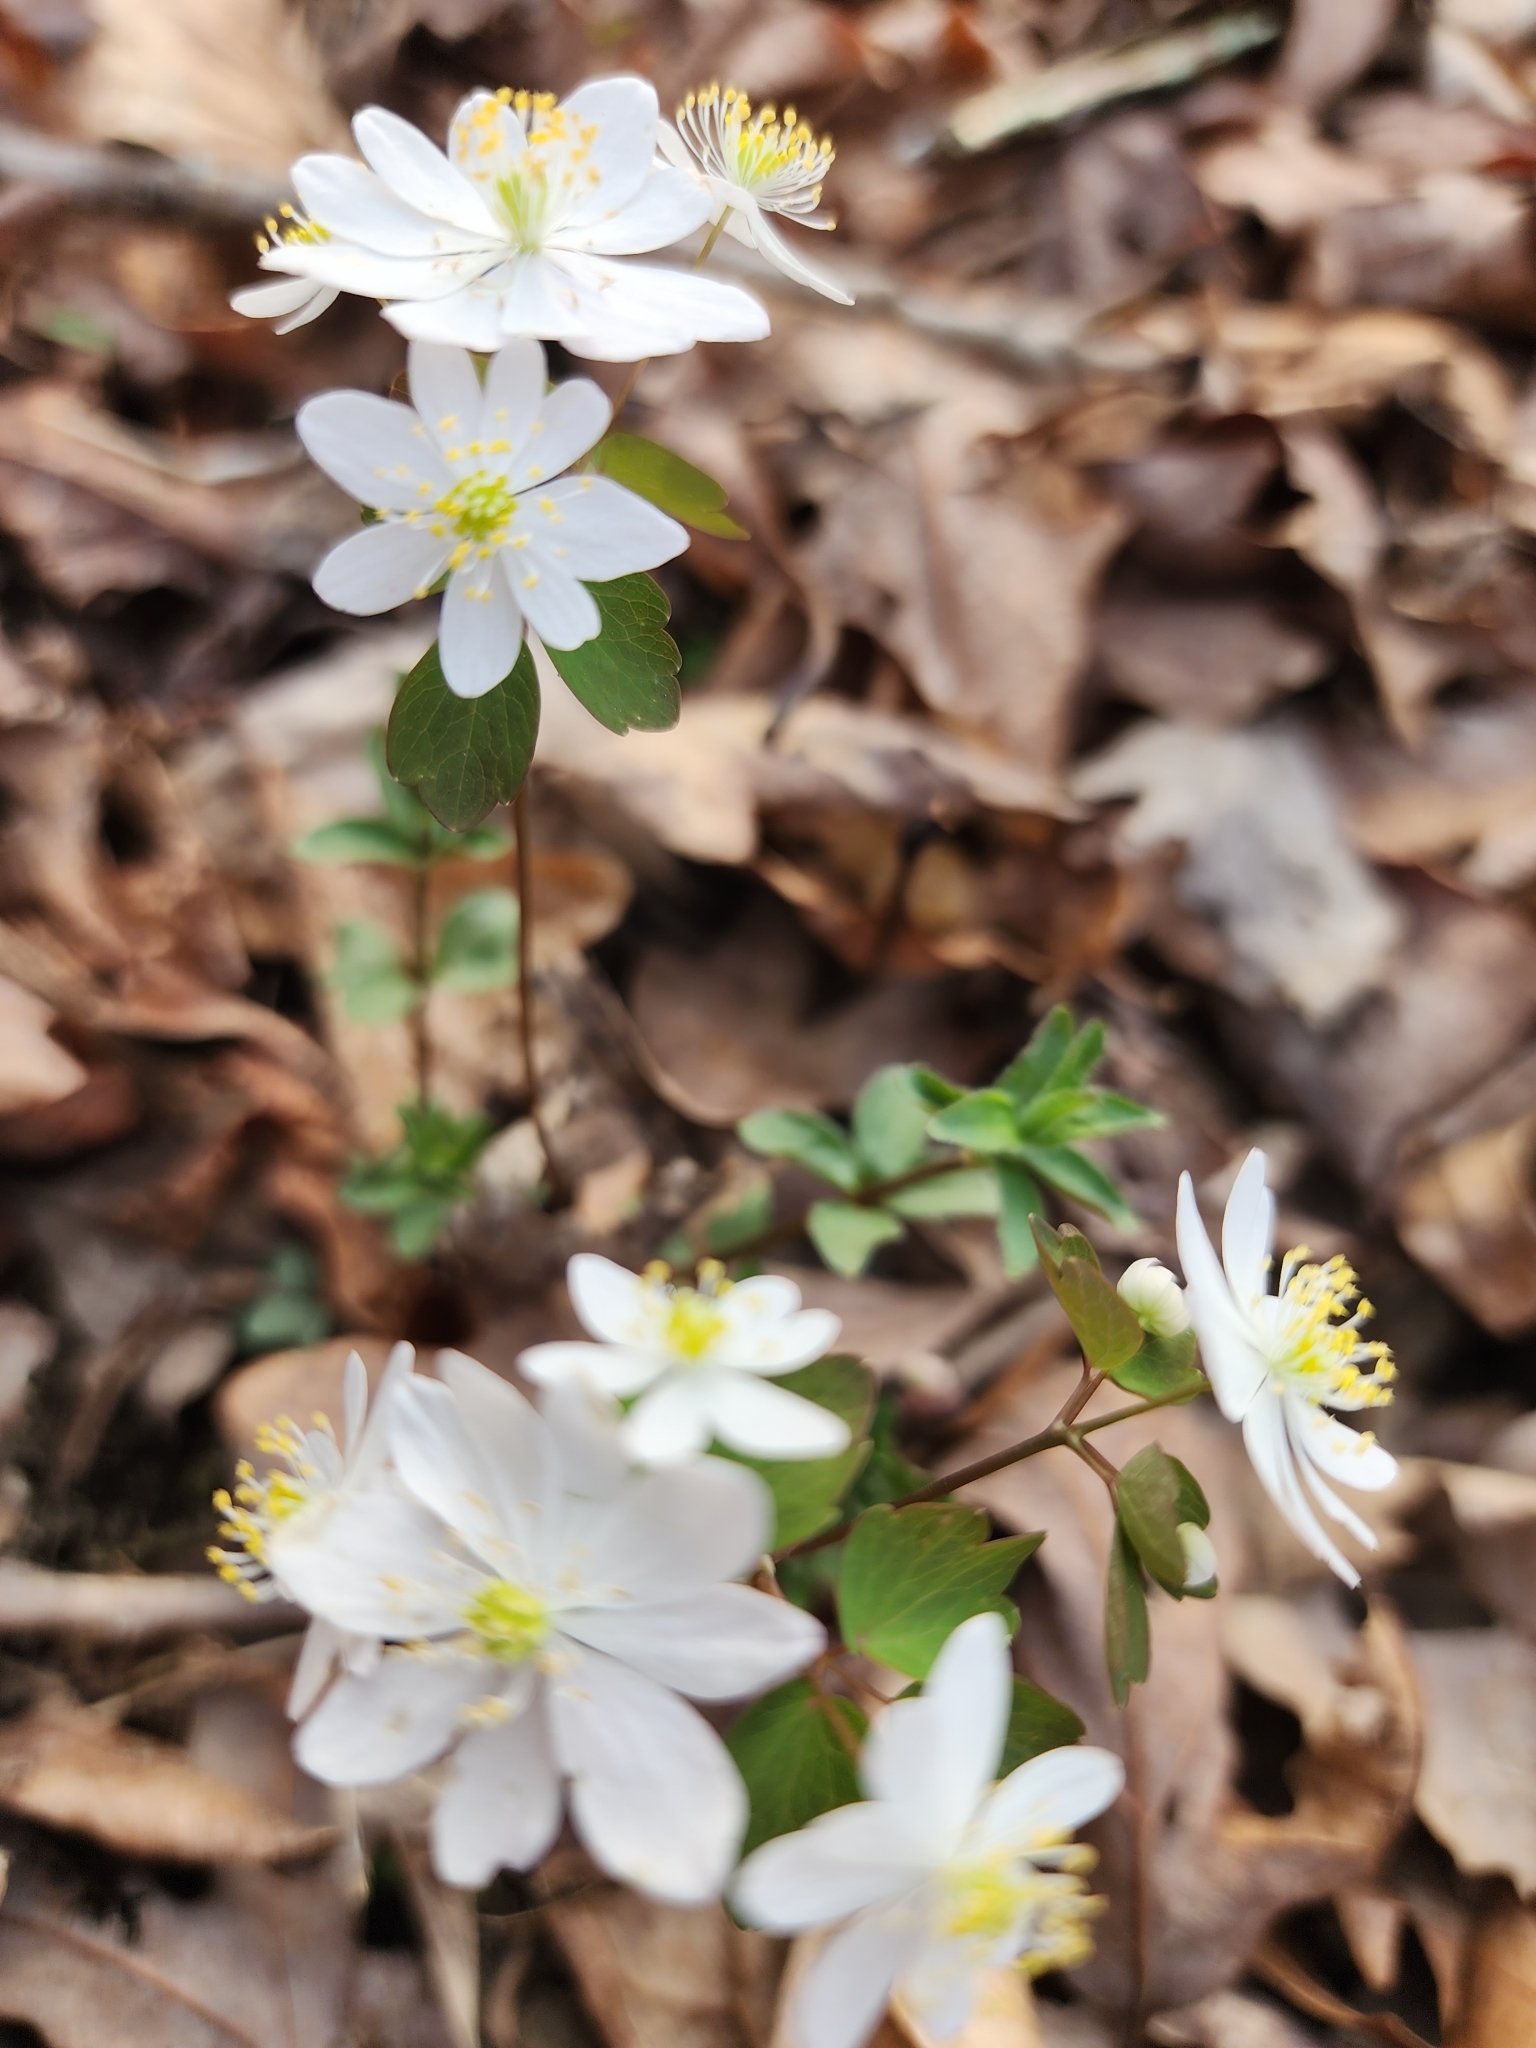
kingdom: Plantae
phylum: Tracheophyta
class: Magnoliopsida
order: Ranunculales
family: Ranunculaceae
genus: Thalictrum
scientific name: Thalictrum thalictroides
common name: Rue-anemone
